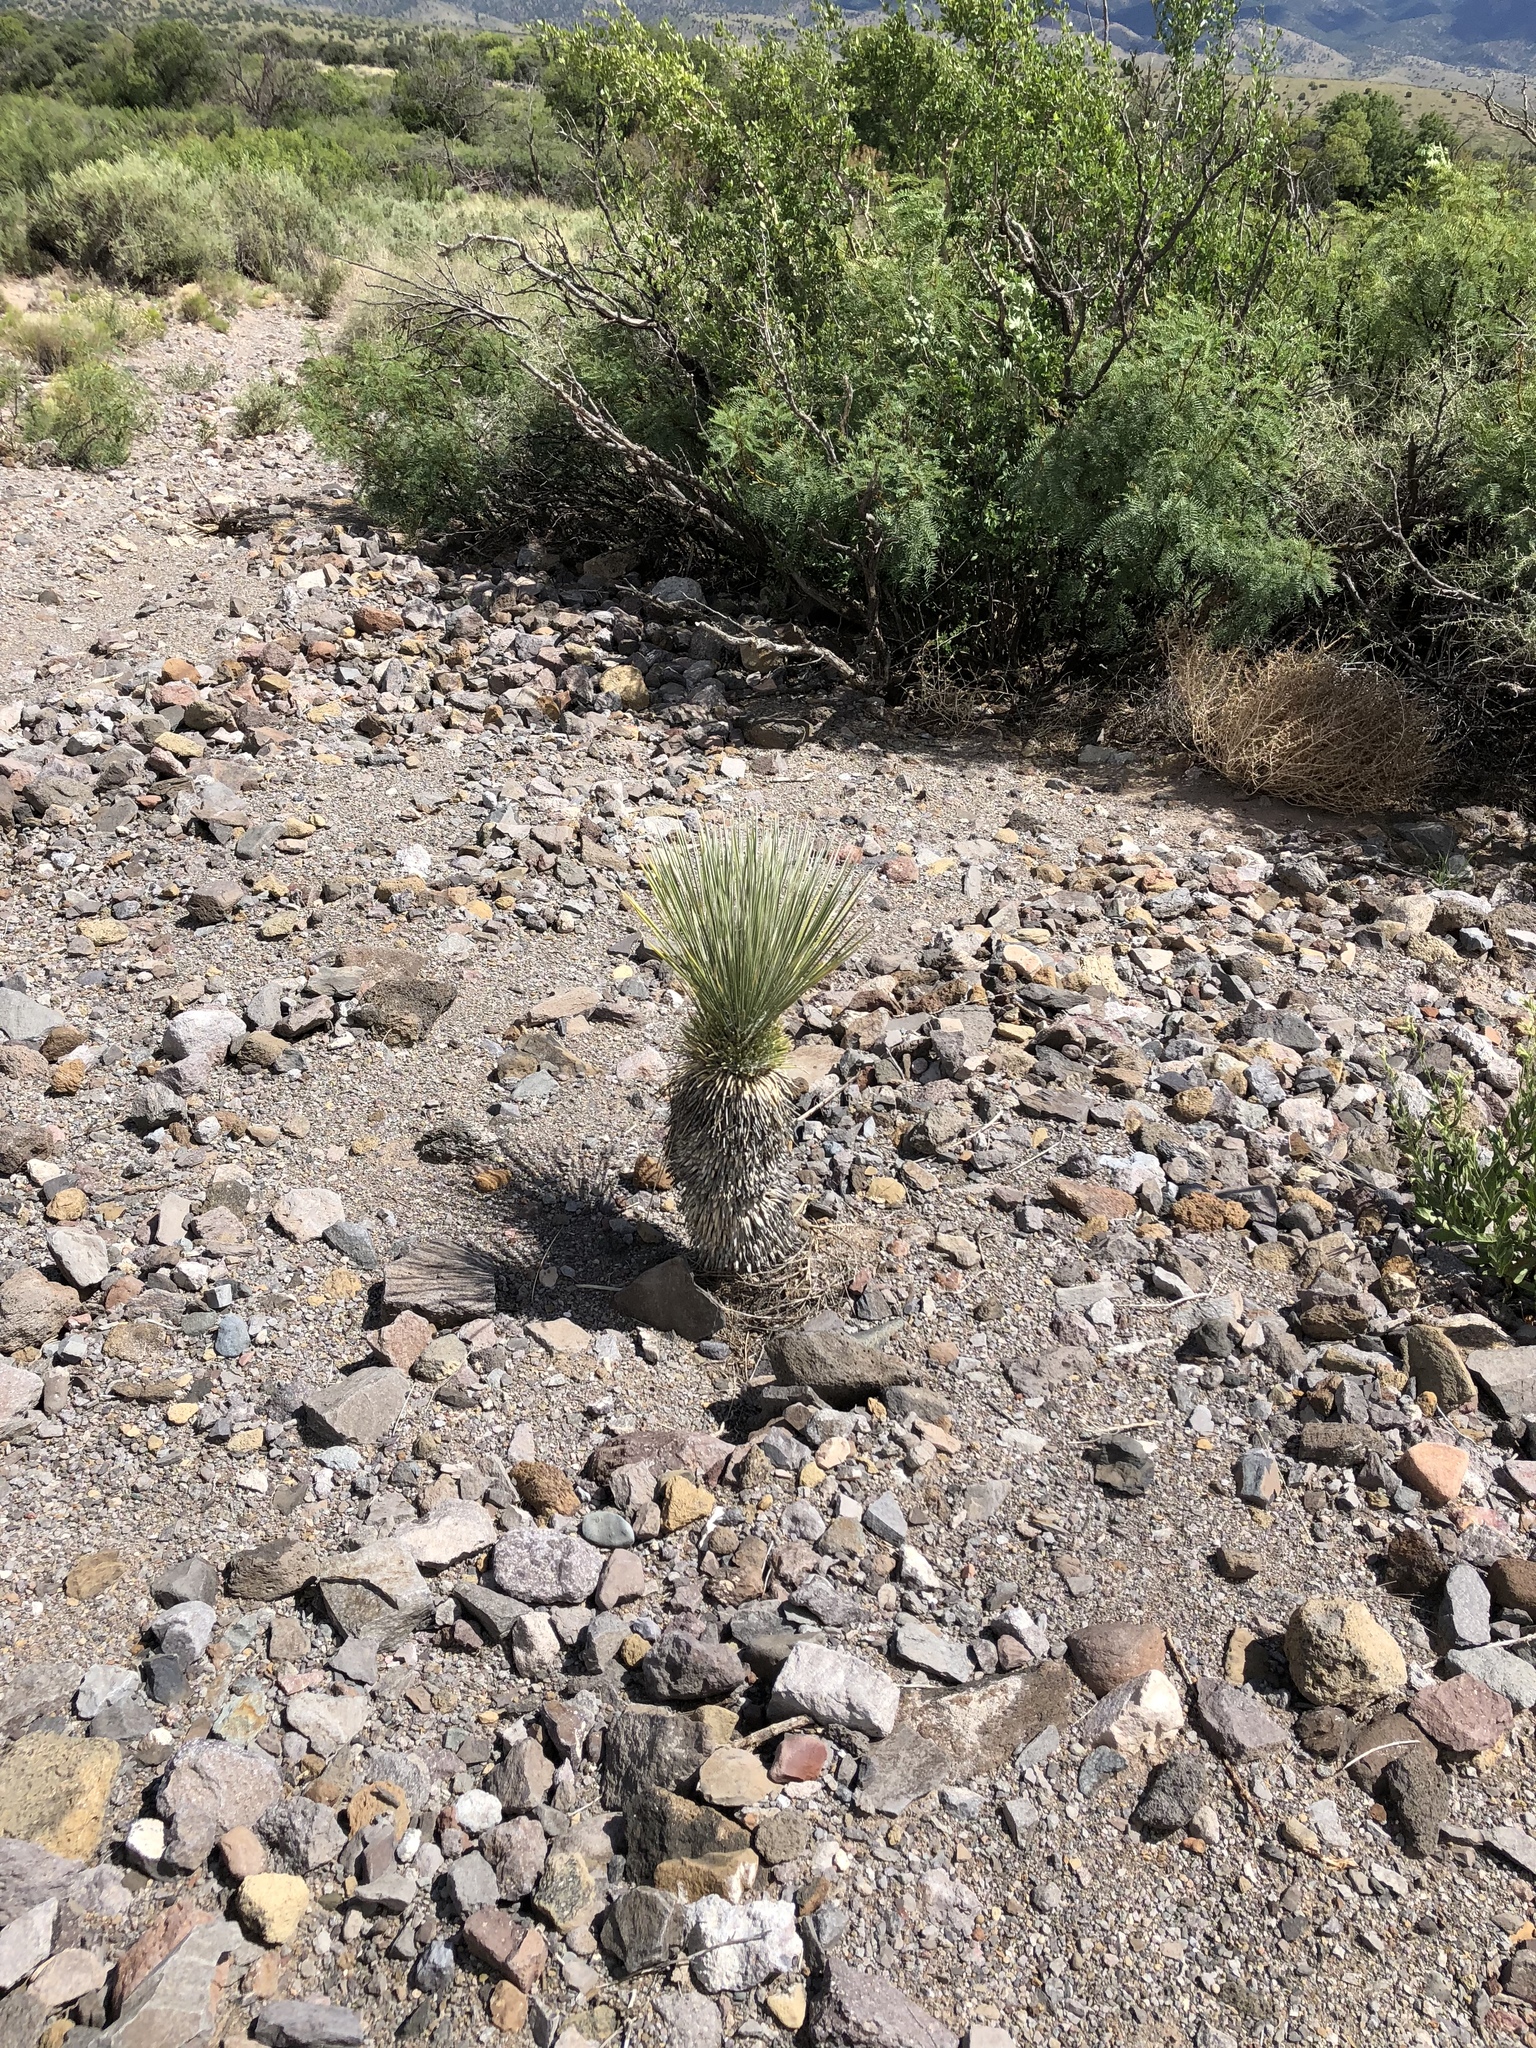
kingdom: Plantae
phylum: Tracheophyta
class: Liliopsida
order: Asparagales
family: Asparagaceae
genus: Yucca
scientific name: Yucca elata
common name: Palmella
